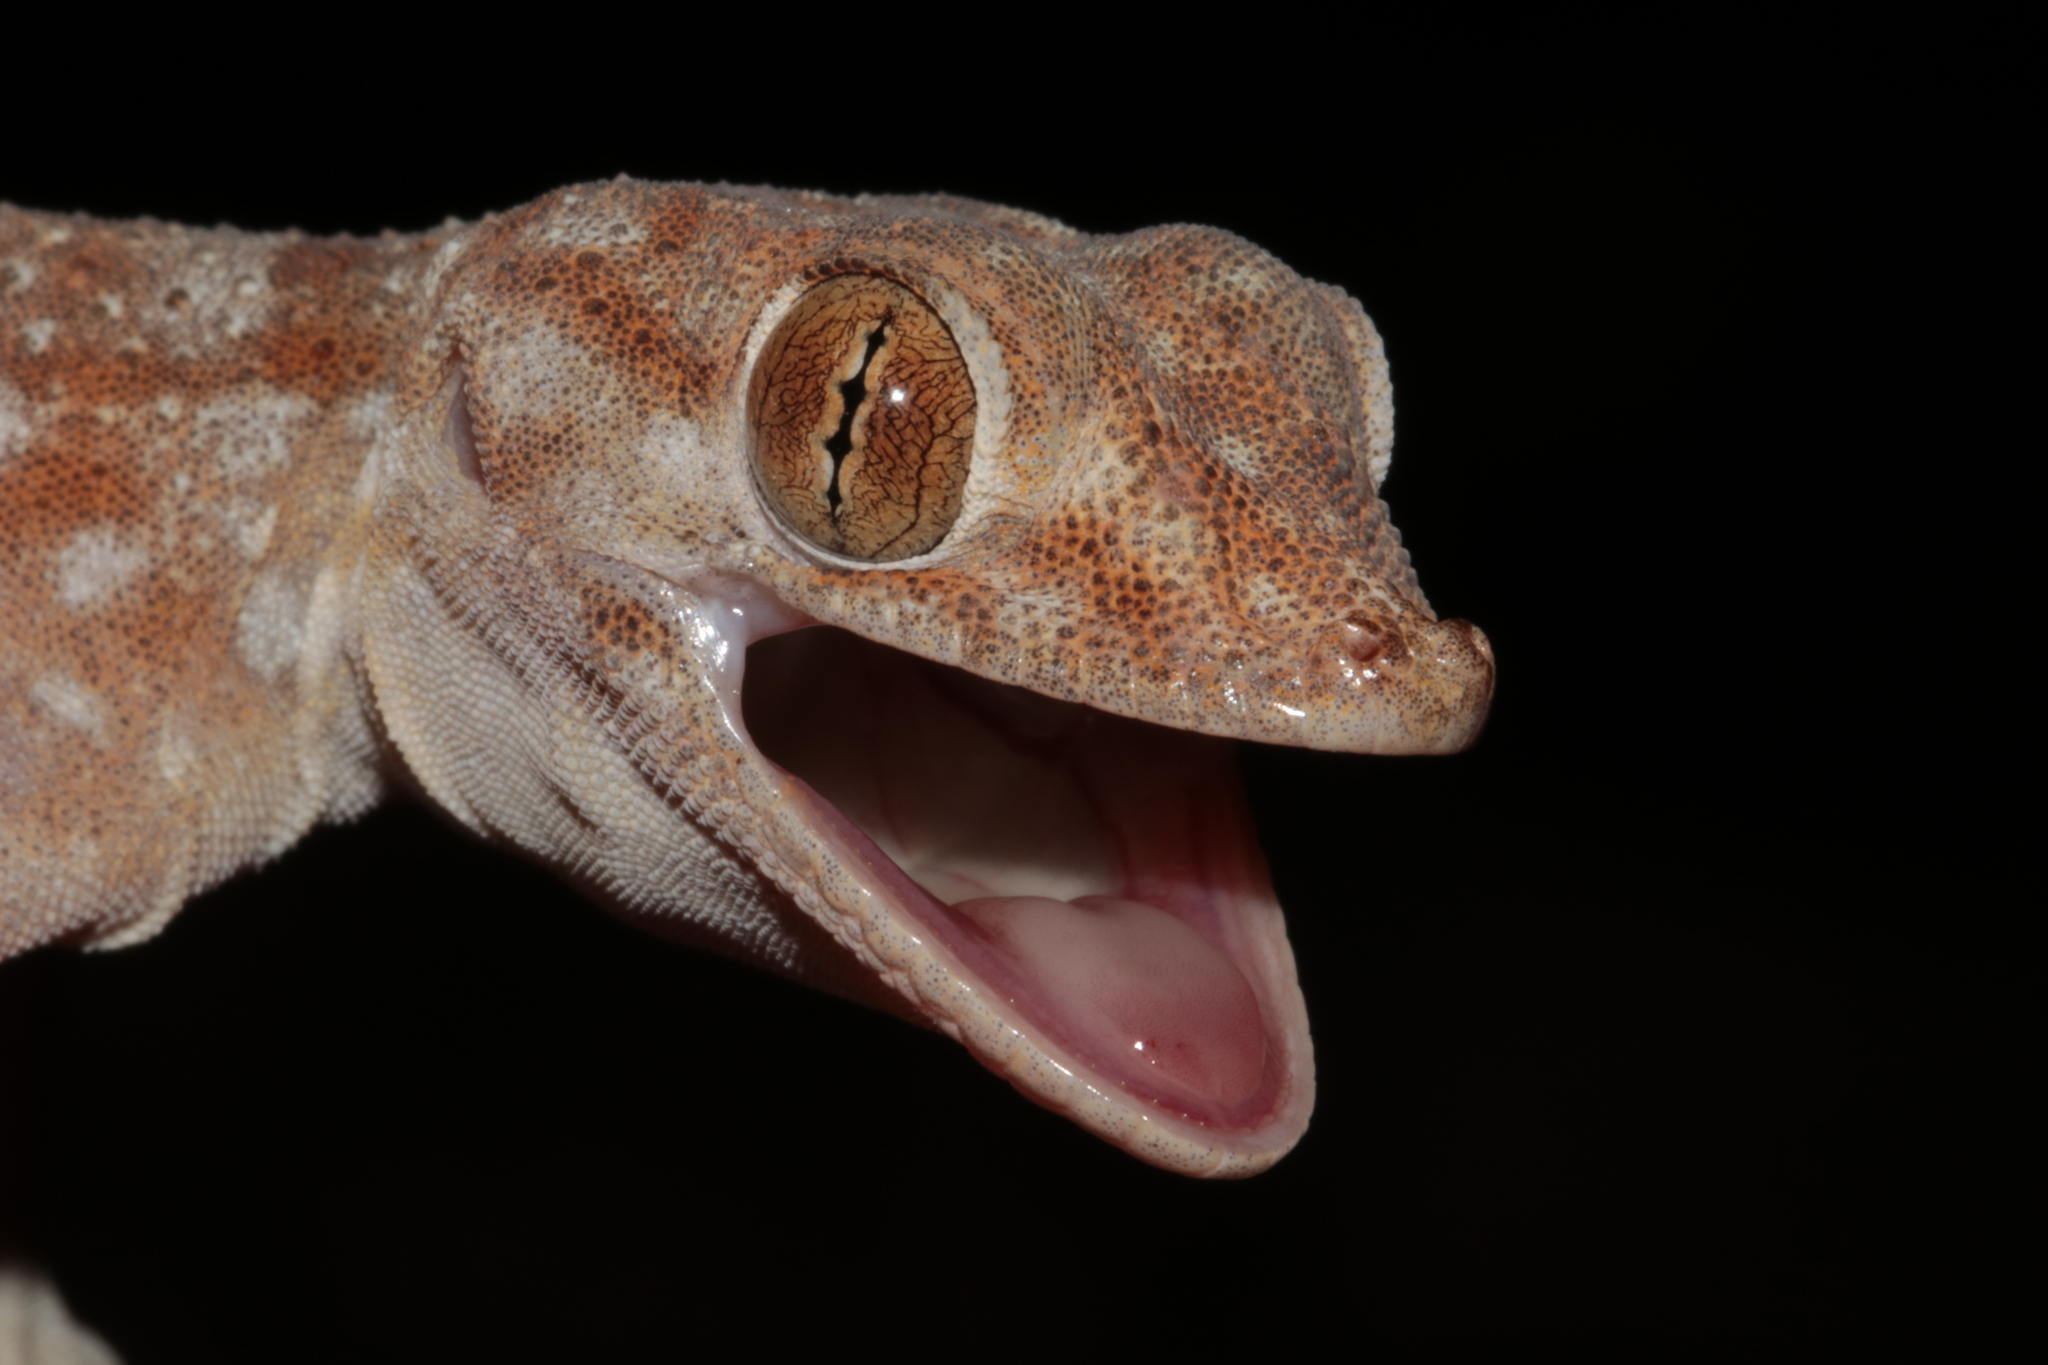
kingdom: Animalia
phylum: Chordata
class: Squamata
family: Phyllodactylidae
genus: Ptyodactylus
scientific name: Ptyodactylus hasselquistii
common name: Hasselquist’s fan-footed gecko
